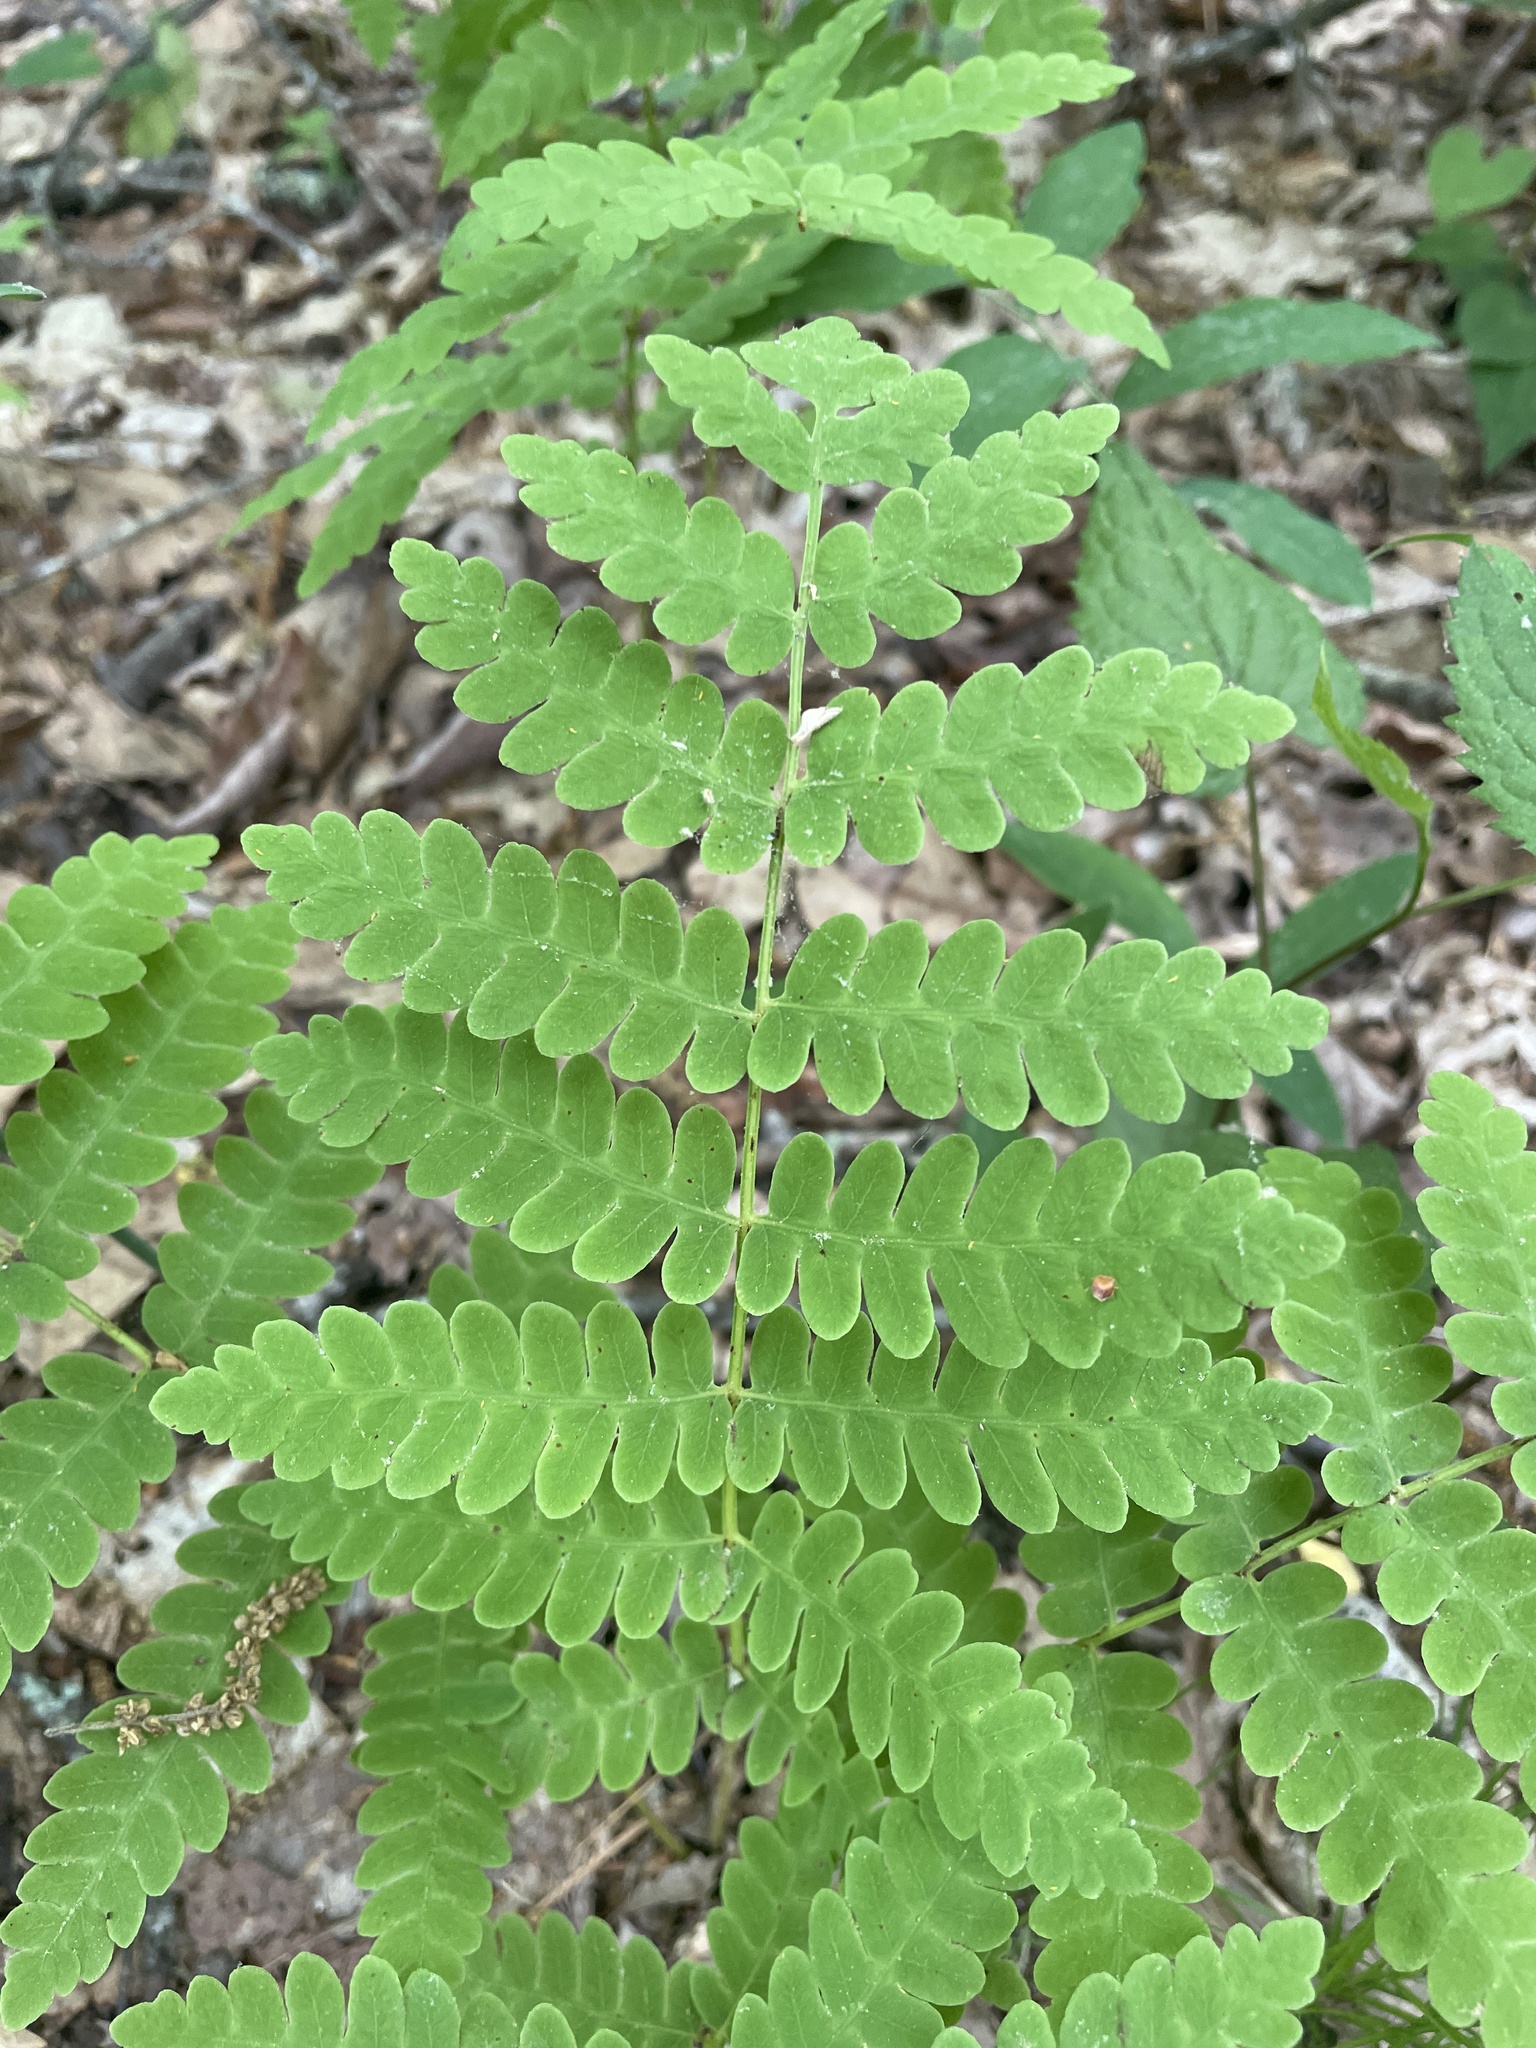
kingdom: Plantae
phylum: Tracheophyta
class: Polypodiopsida
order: Osmundales
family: Osmundaceae
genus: Claytosmunda
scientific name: Claytosmunda claytoniana
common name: Clayton's fern
